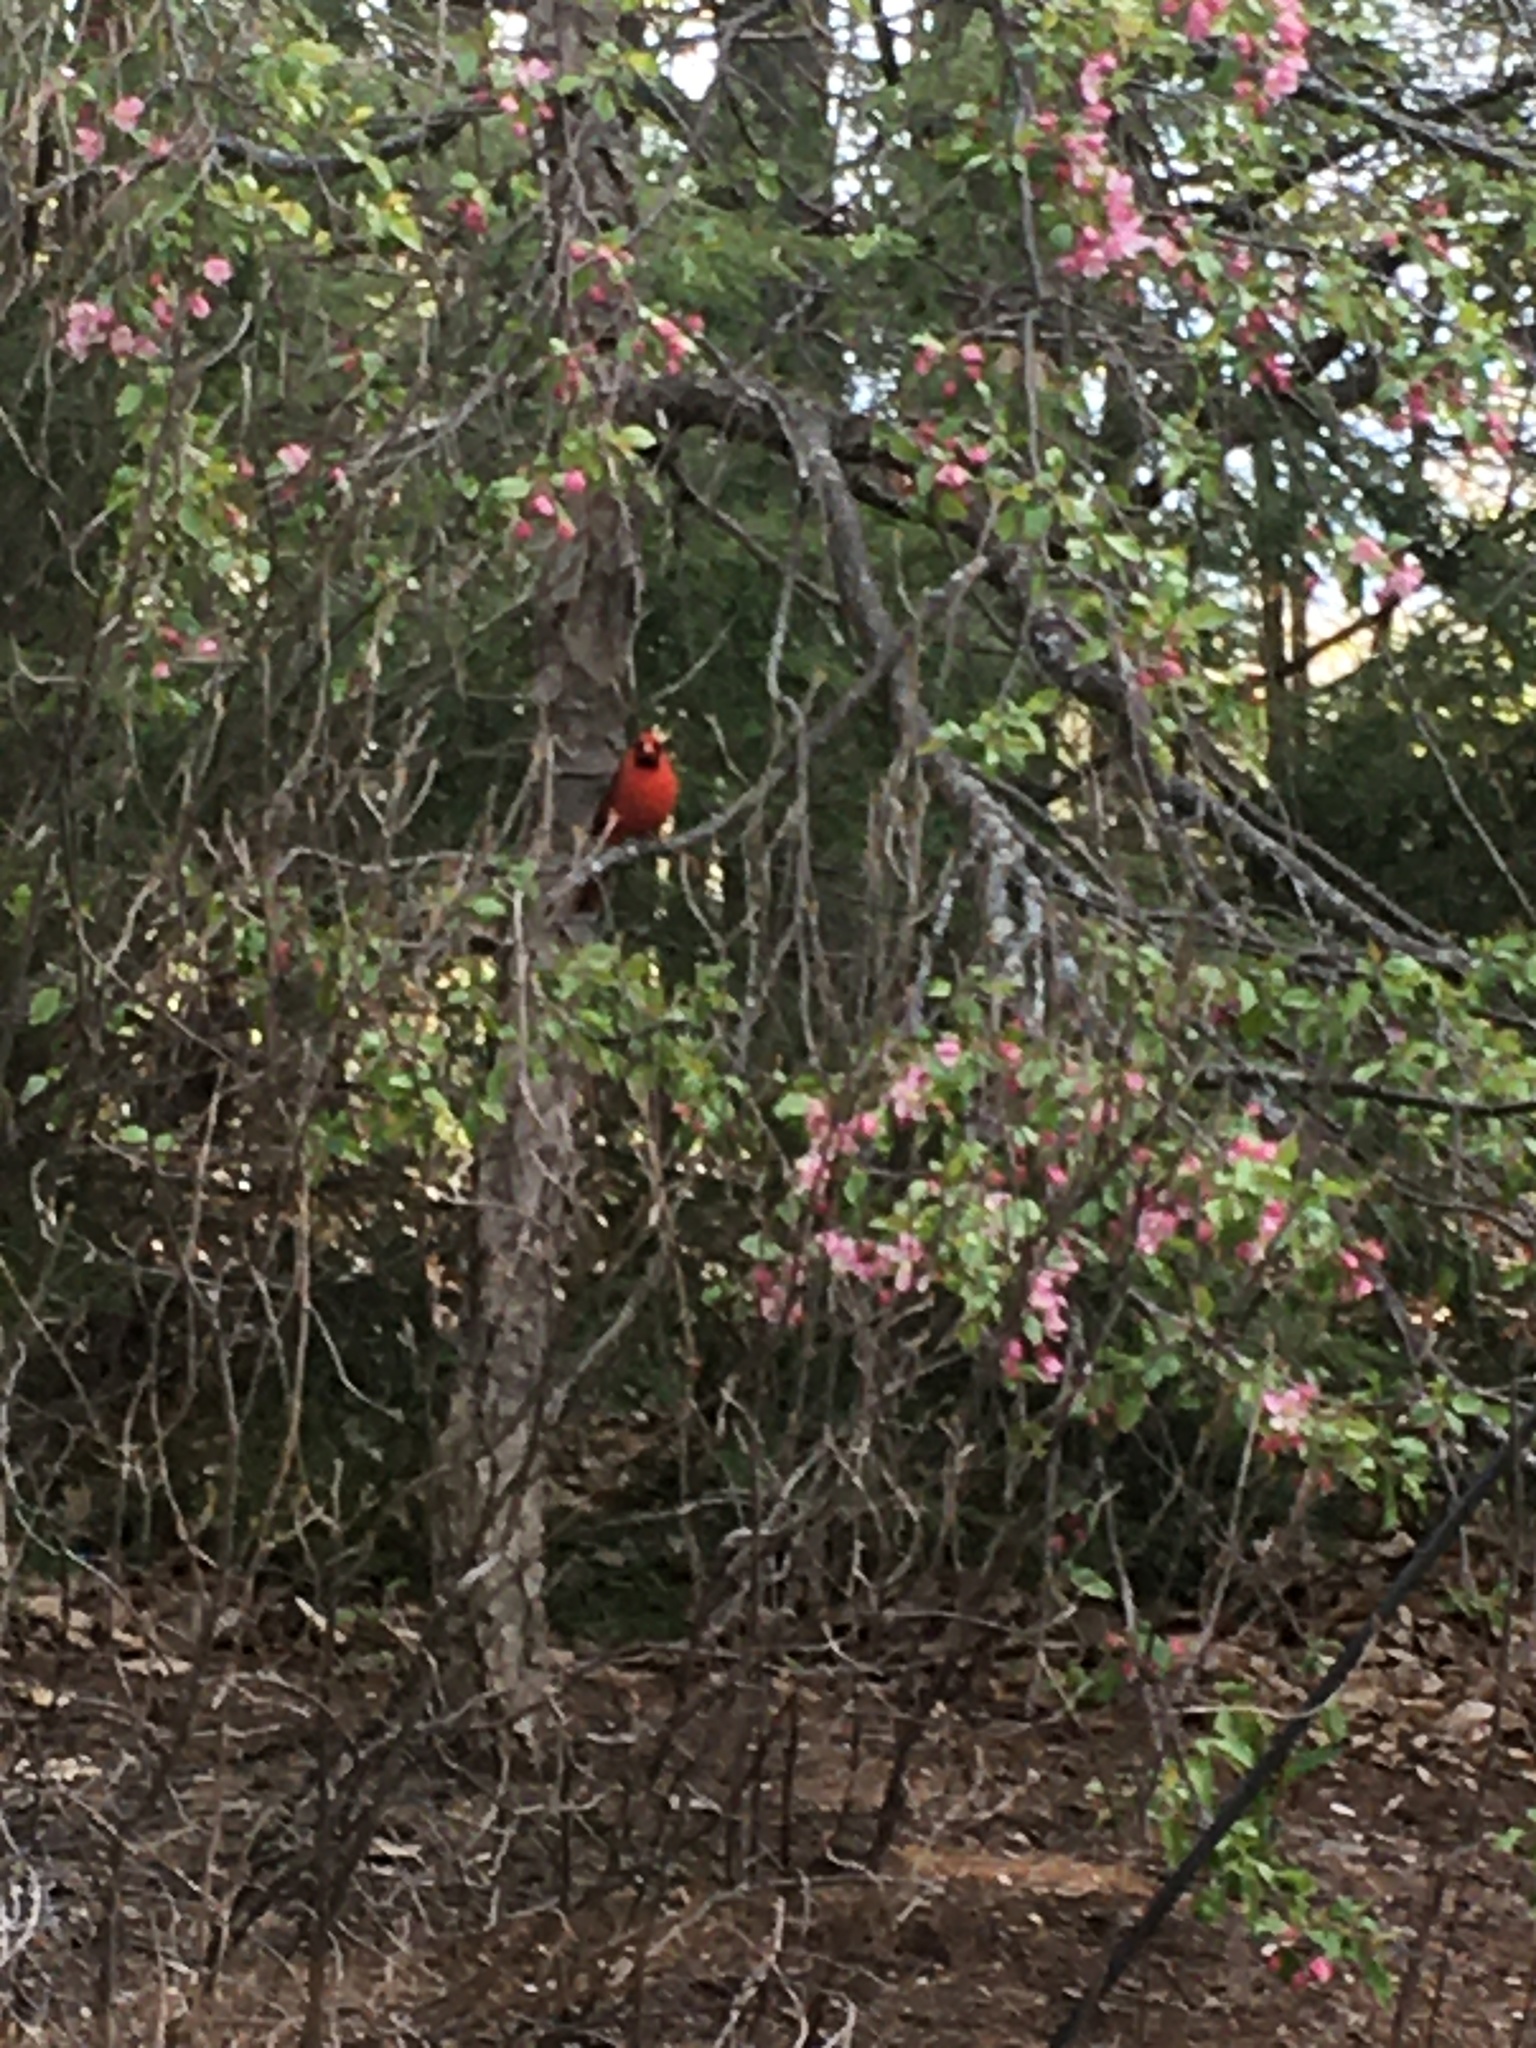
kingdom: Animalia
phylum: Chordata
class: Aves
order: Passeriformes
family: Cardinalidae
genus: Cardinalis
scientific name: Cardinalis cardinalis
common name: Northern cardinal
